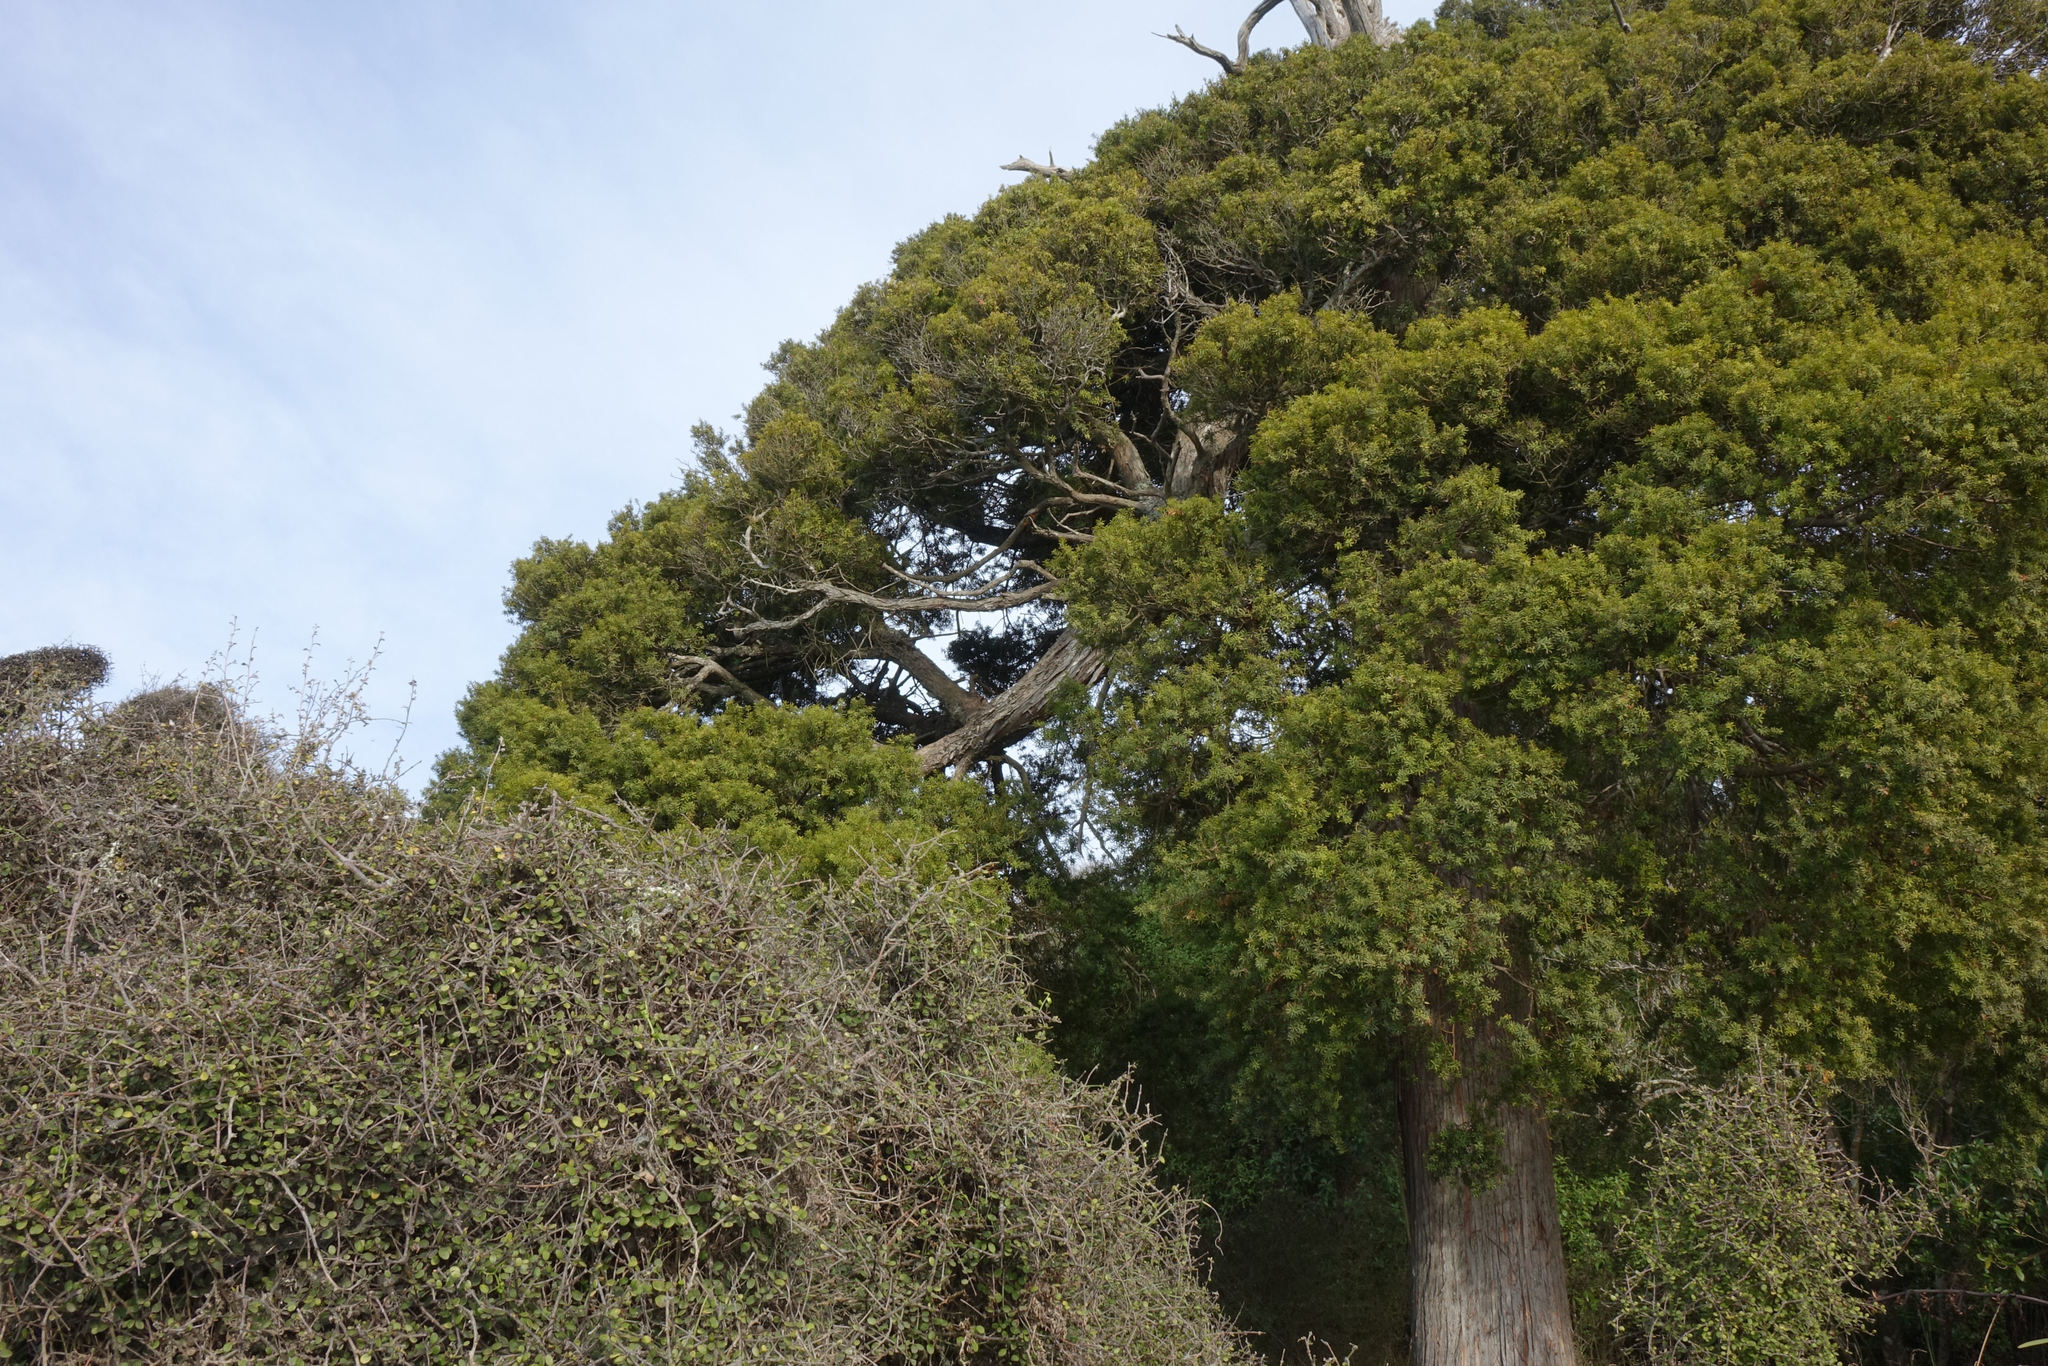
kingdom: Plantae
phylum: Tracheophyta
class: Pinopsida
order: Pinales
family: Podocarpaceae
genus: Podocarpus
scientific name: Podocarpus laetus
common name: Hall's totara
